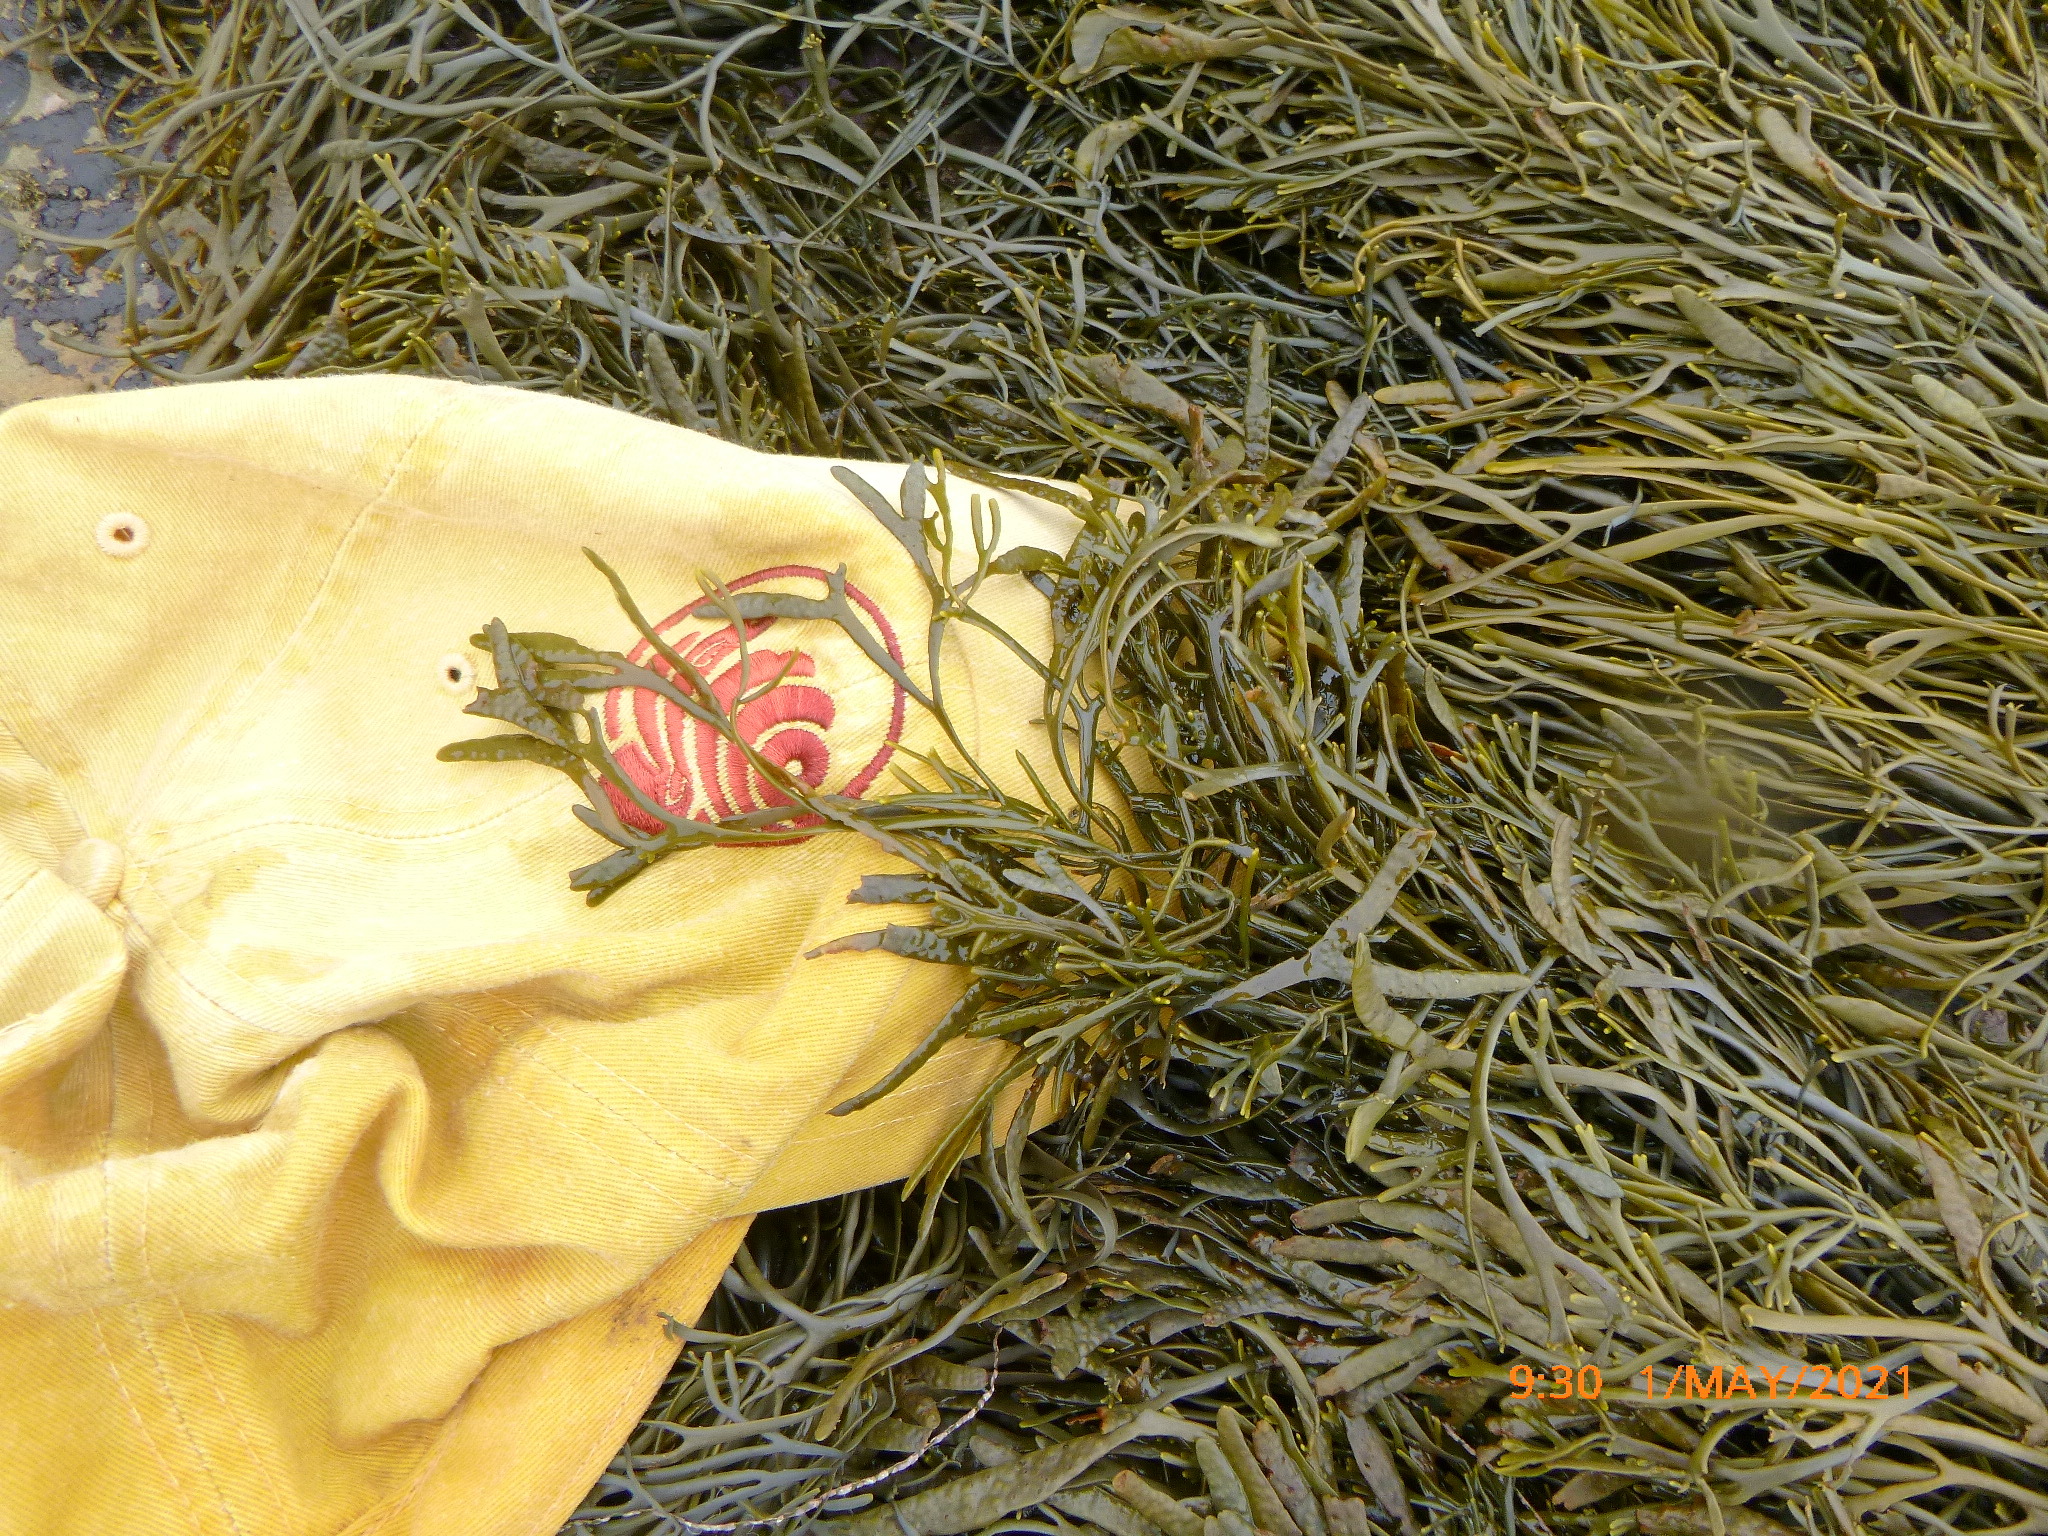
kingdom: Chromista
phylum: Ochrophyta
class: Phaeophyceae
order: Fucales
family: Fucaceae
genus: Silvetia
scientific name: Silvetia
